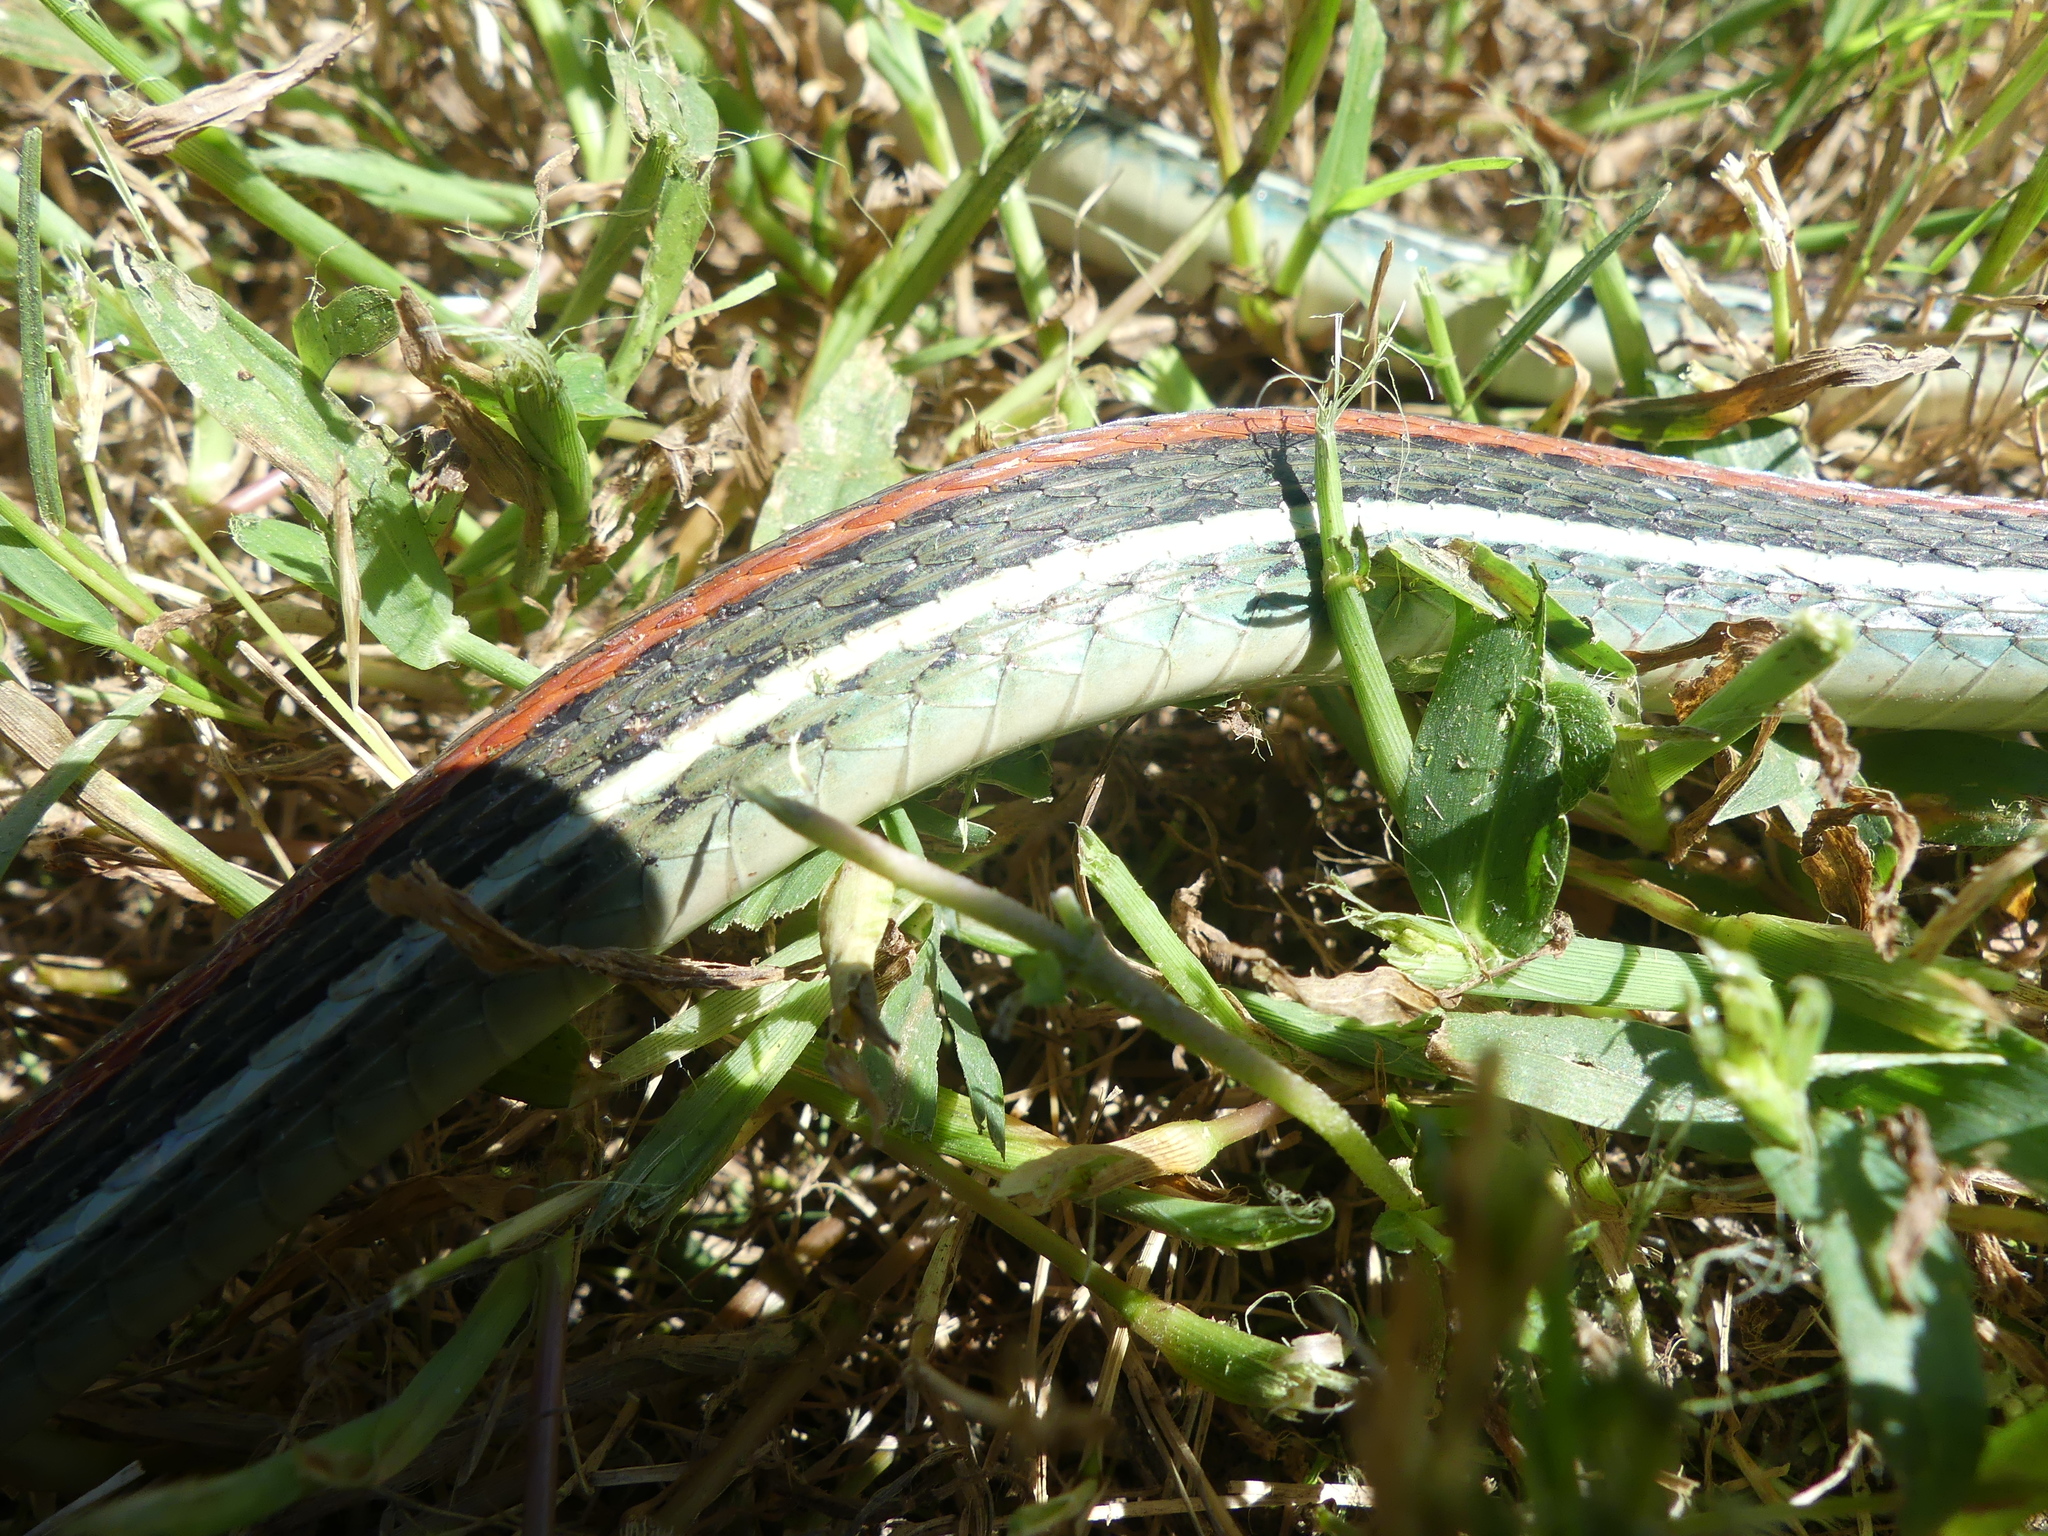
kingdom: Animalia
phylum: Chordata
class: Squamata
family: Colubridae
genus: Thamnophis
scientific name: Thamnophis proximus
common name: Western ribbon snake
